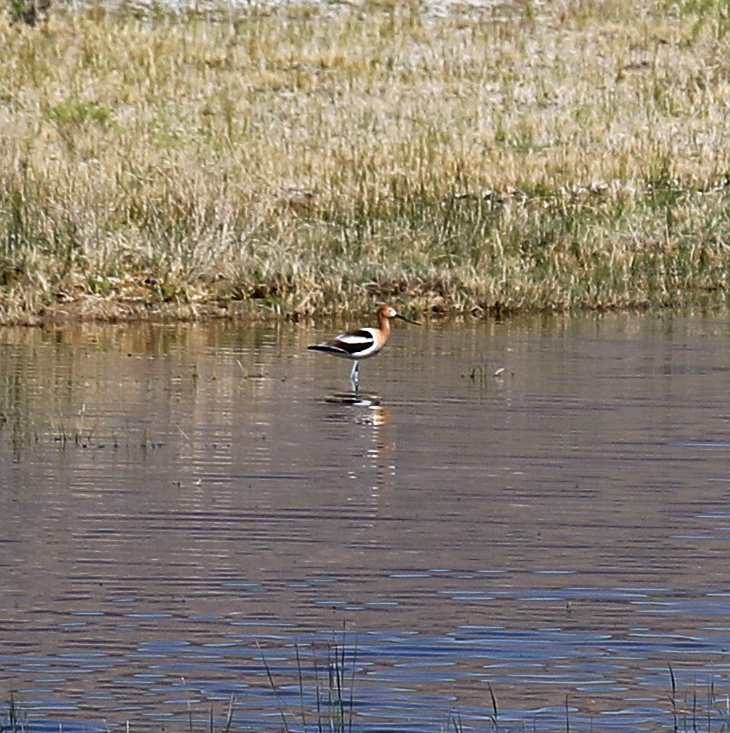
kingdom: Animalia
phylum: Chordata
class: Aves
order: Charadriiformes
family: Recurvirostridae
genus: Recurvirostra
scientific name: Recurvirostra americana
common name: American avocet
